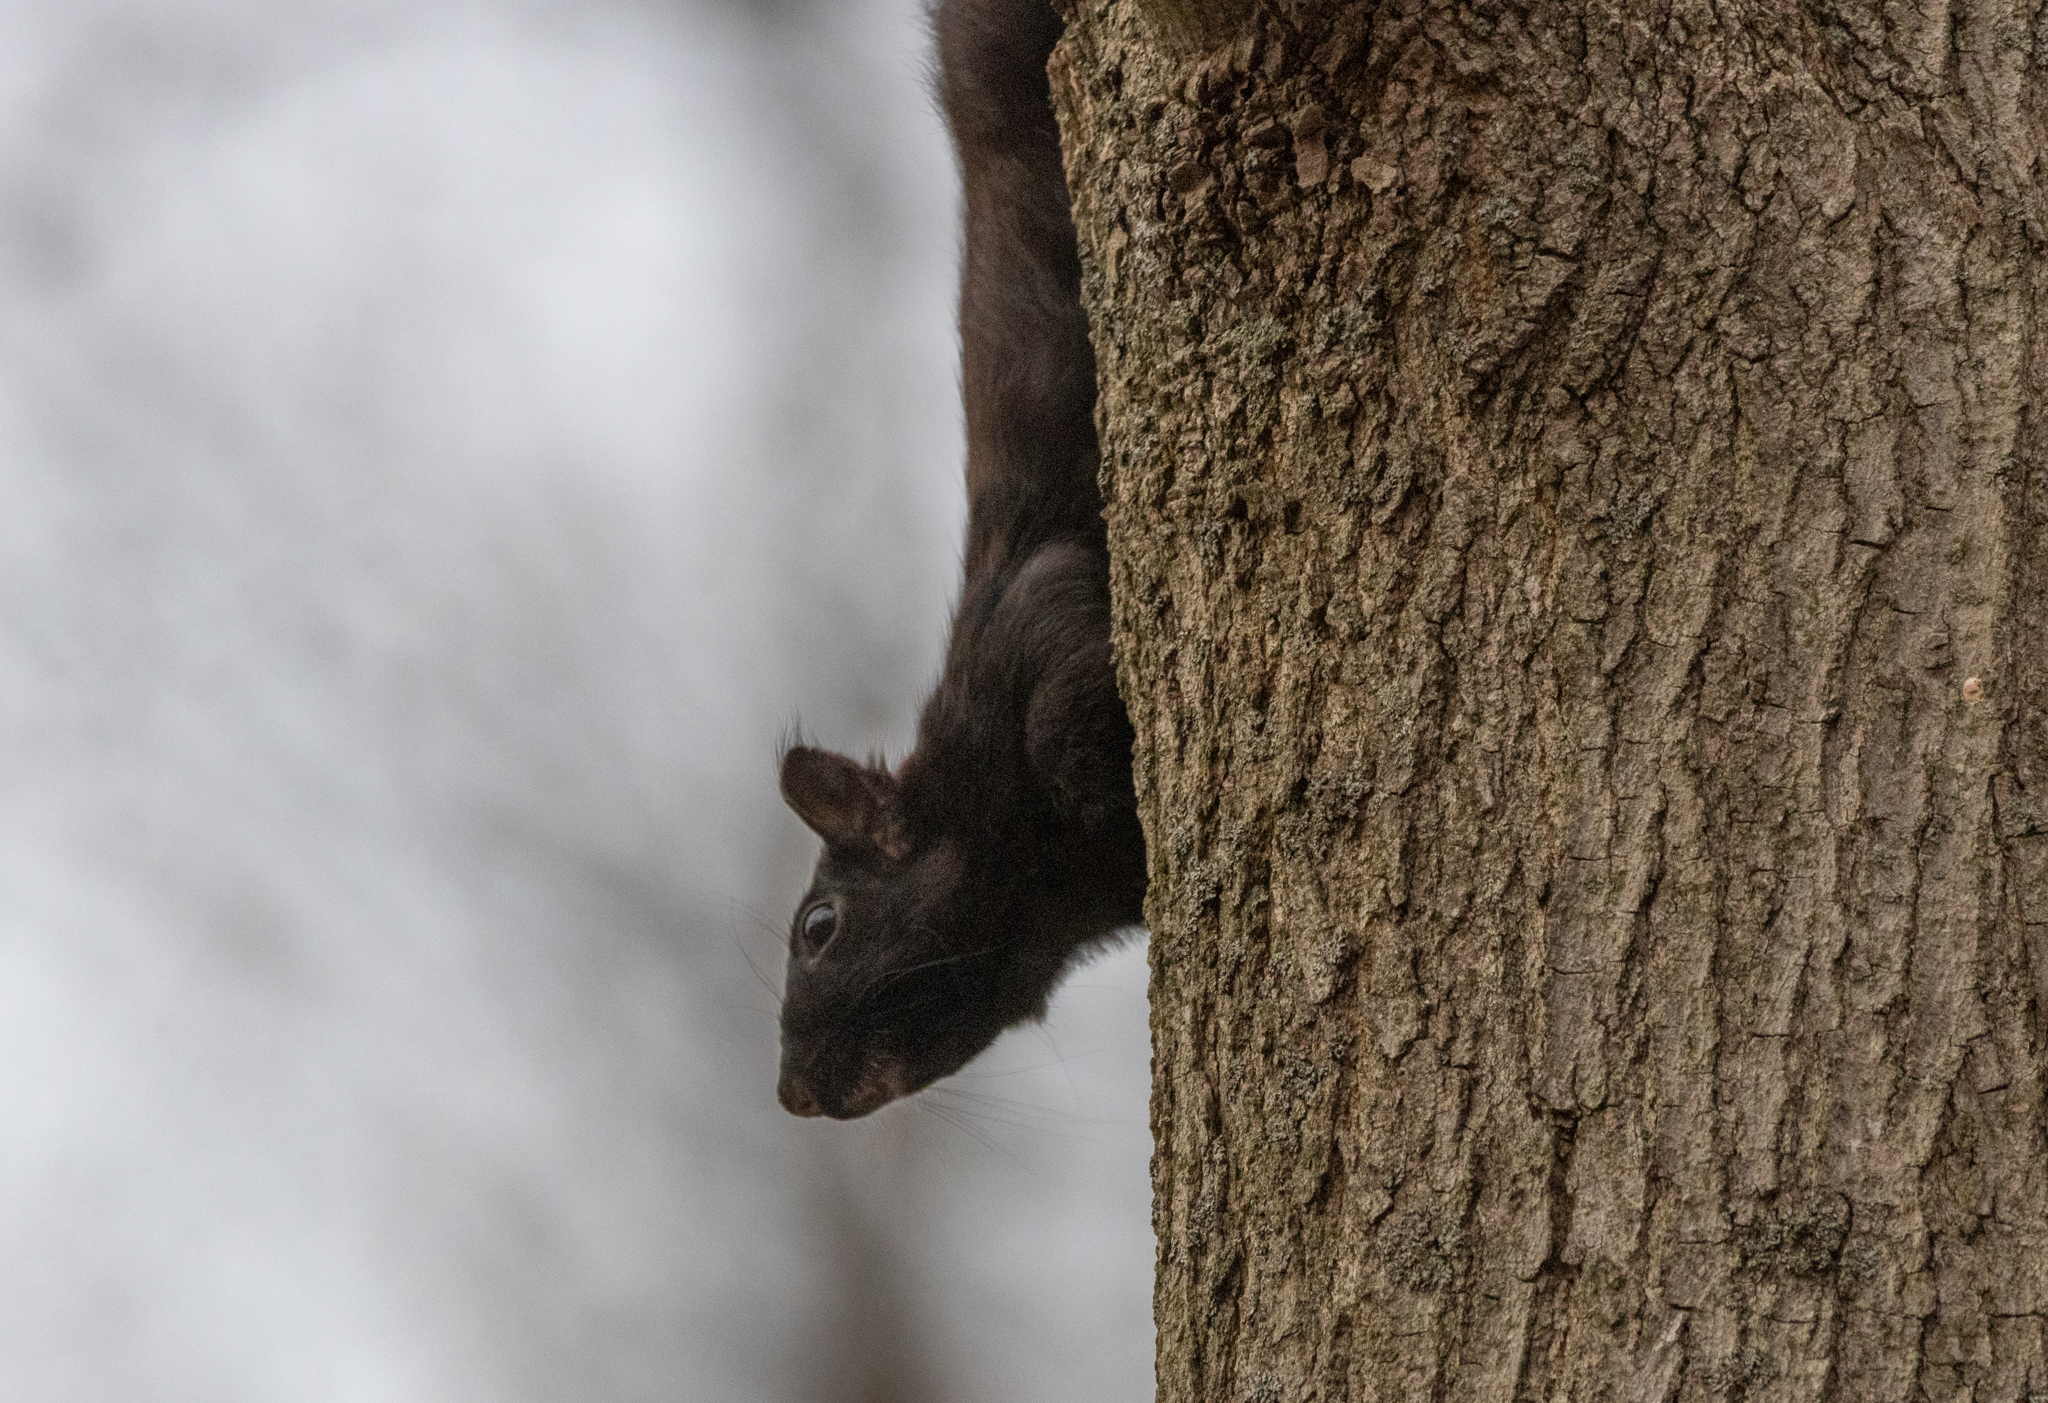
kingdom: Animalia
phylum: Chordata
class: Mammalia
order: Rodentia
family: Sciuridae
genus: Sciurus
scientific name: Sciurus carolinensis
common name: Eastern gray squirrel
